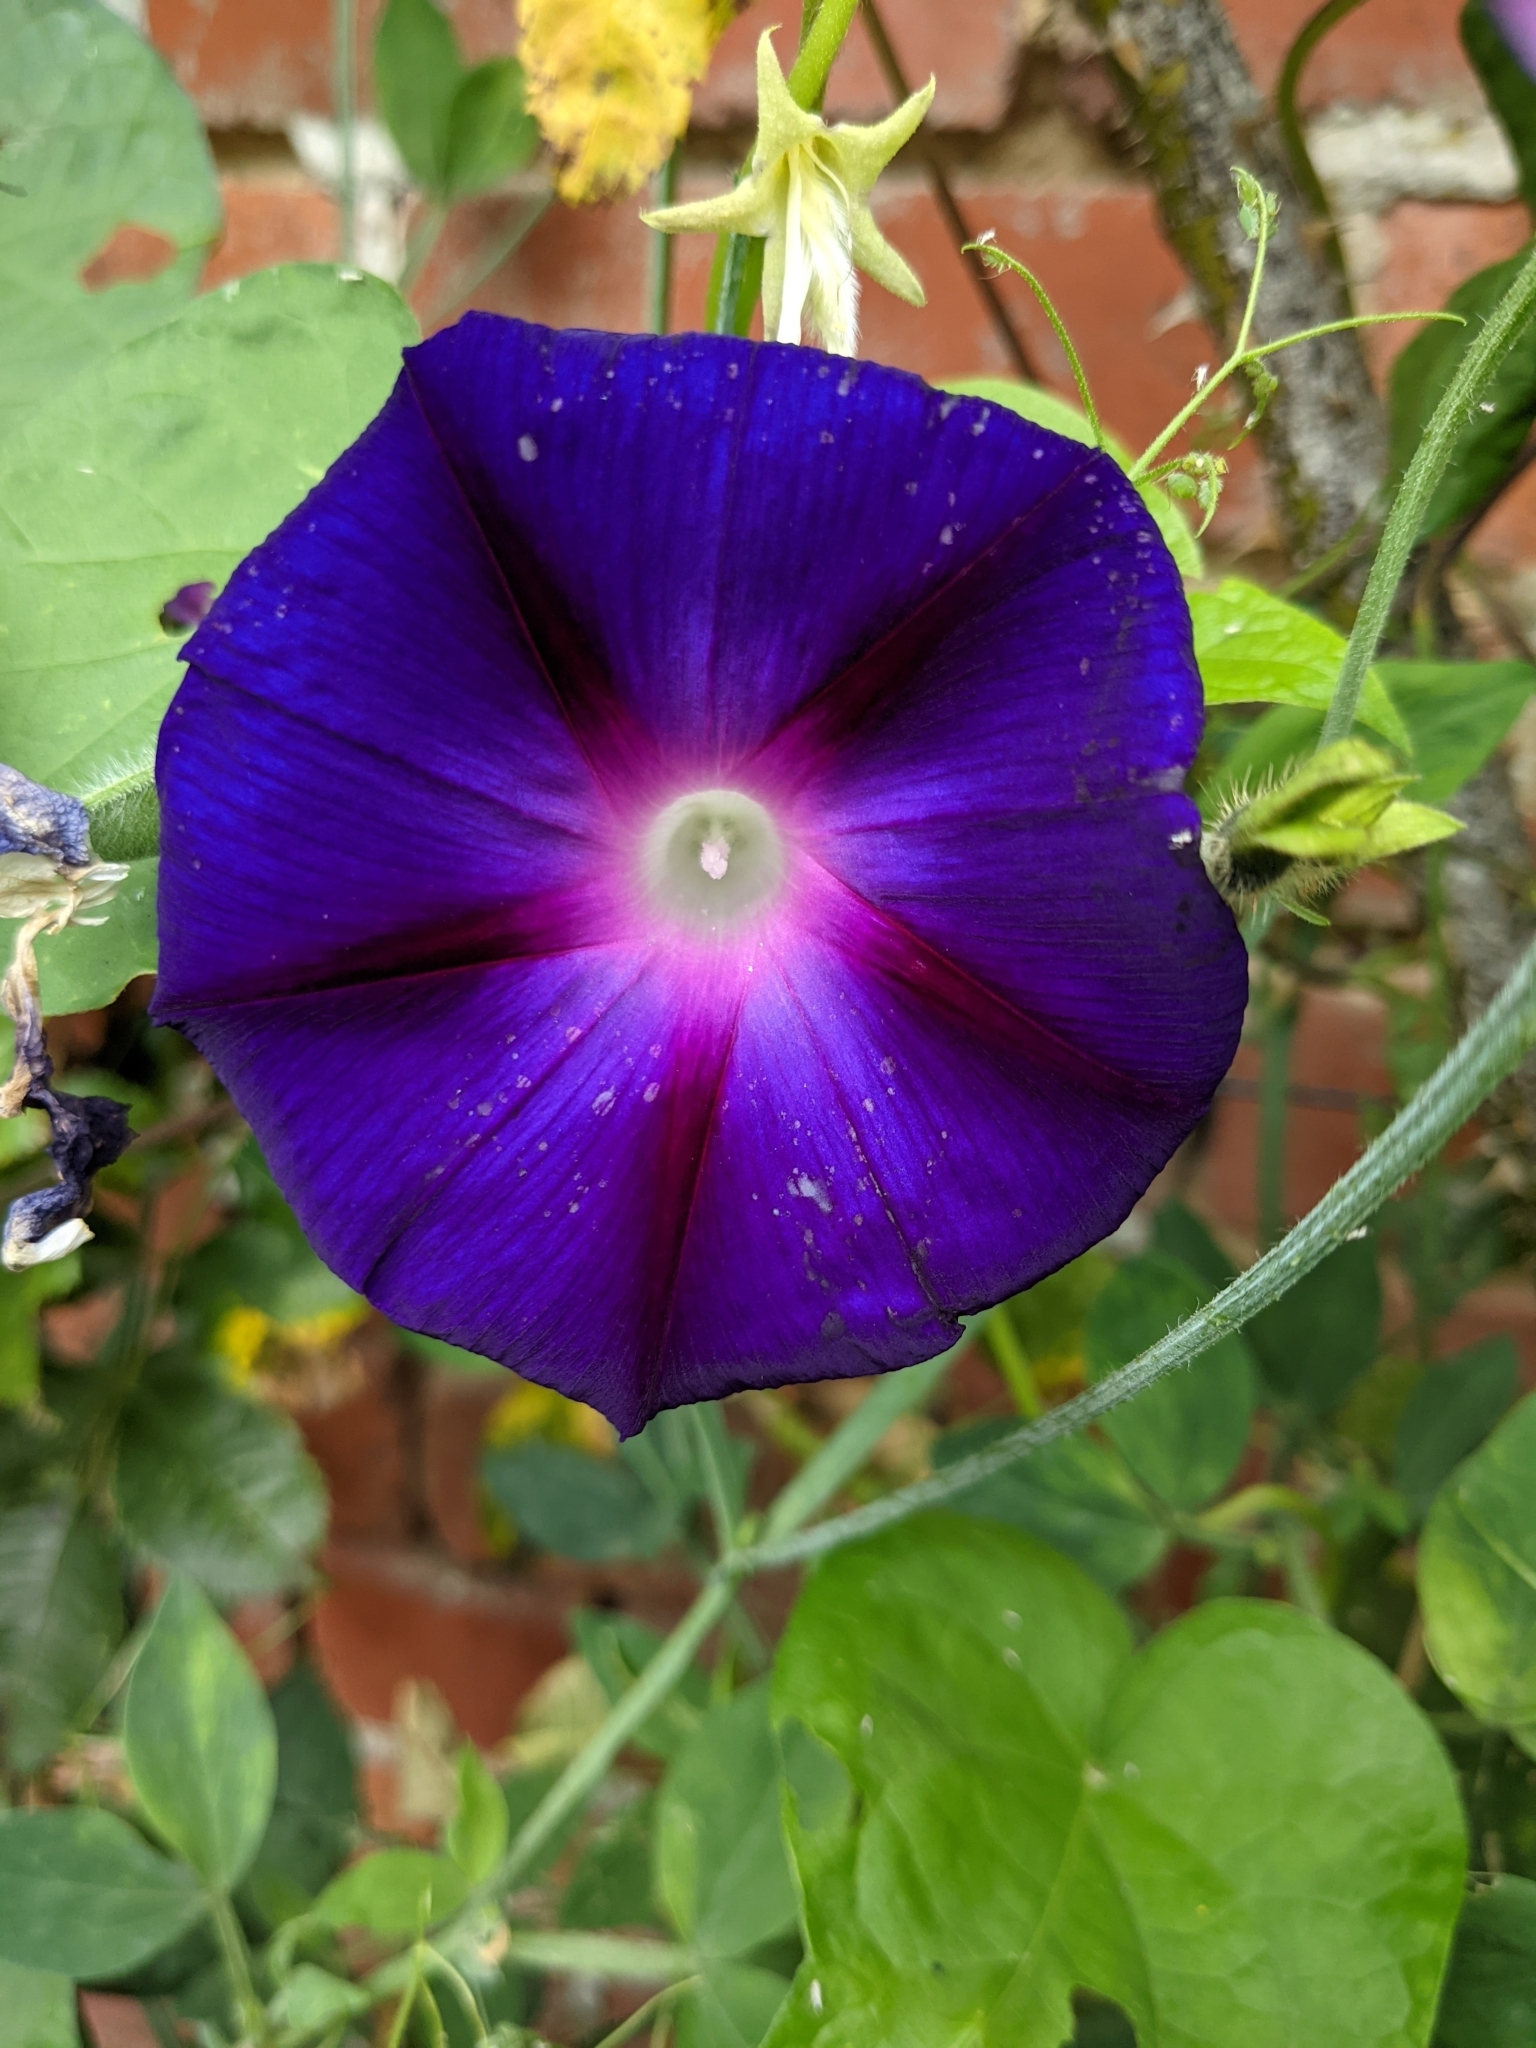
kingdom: Plantae
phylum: Tracheophyta
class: Magnoliopsida
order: Solanales
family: Convolvulaceae
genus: Ipomoea
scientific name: Ipomoea purpurea
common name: Common morning-glory
